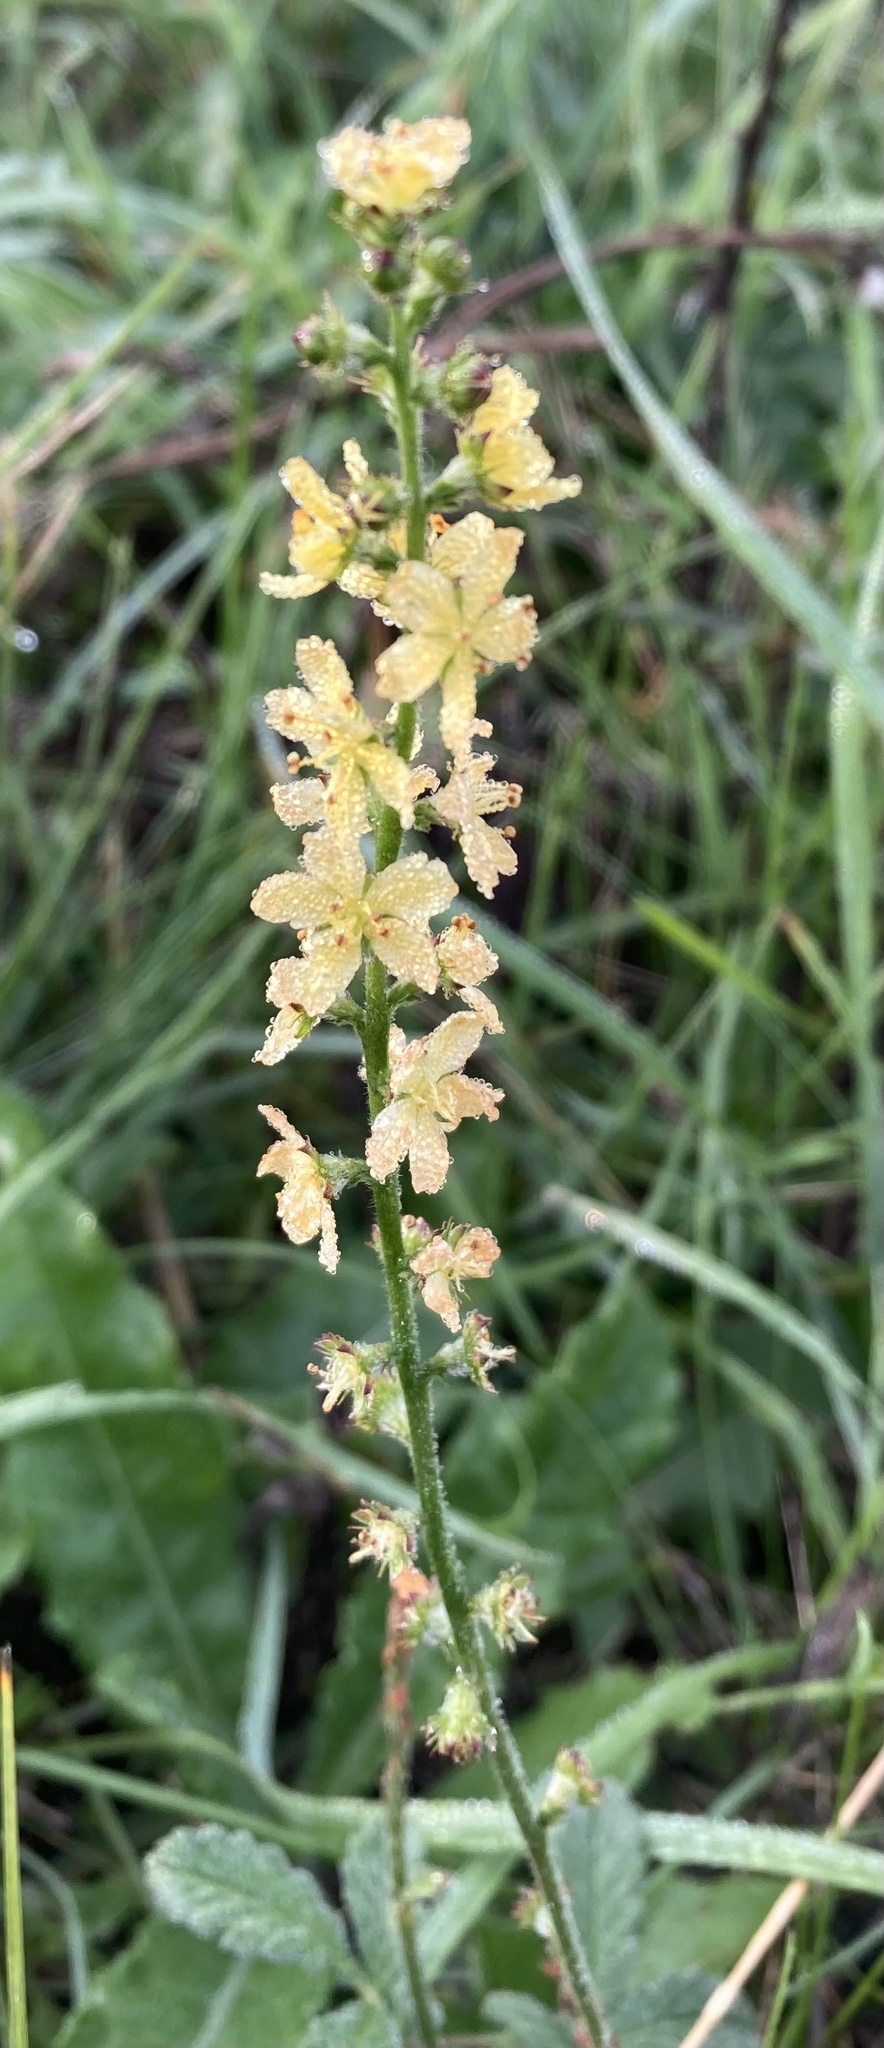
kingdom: Plantae
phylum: Tracheophyta
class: Magnoliopsida
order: Rosales
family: Rosaceae
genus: Agrimonia
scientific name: Agrimonia eupatoria
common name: Agrimony
